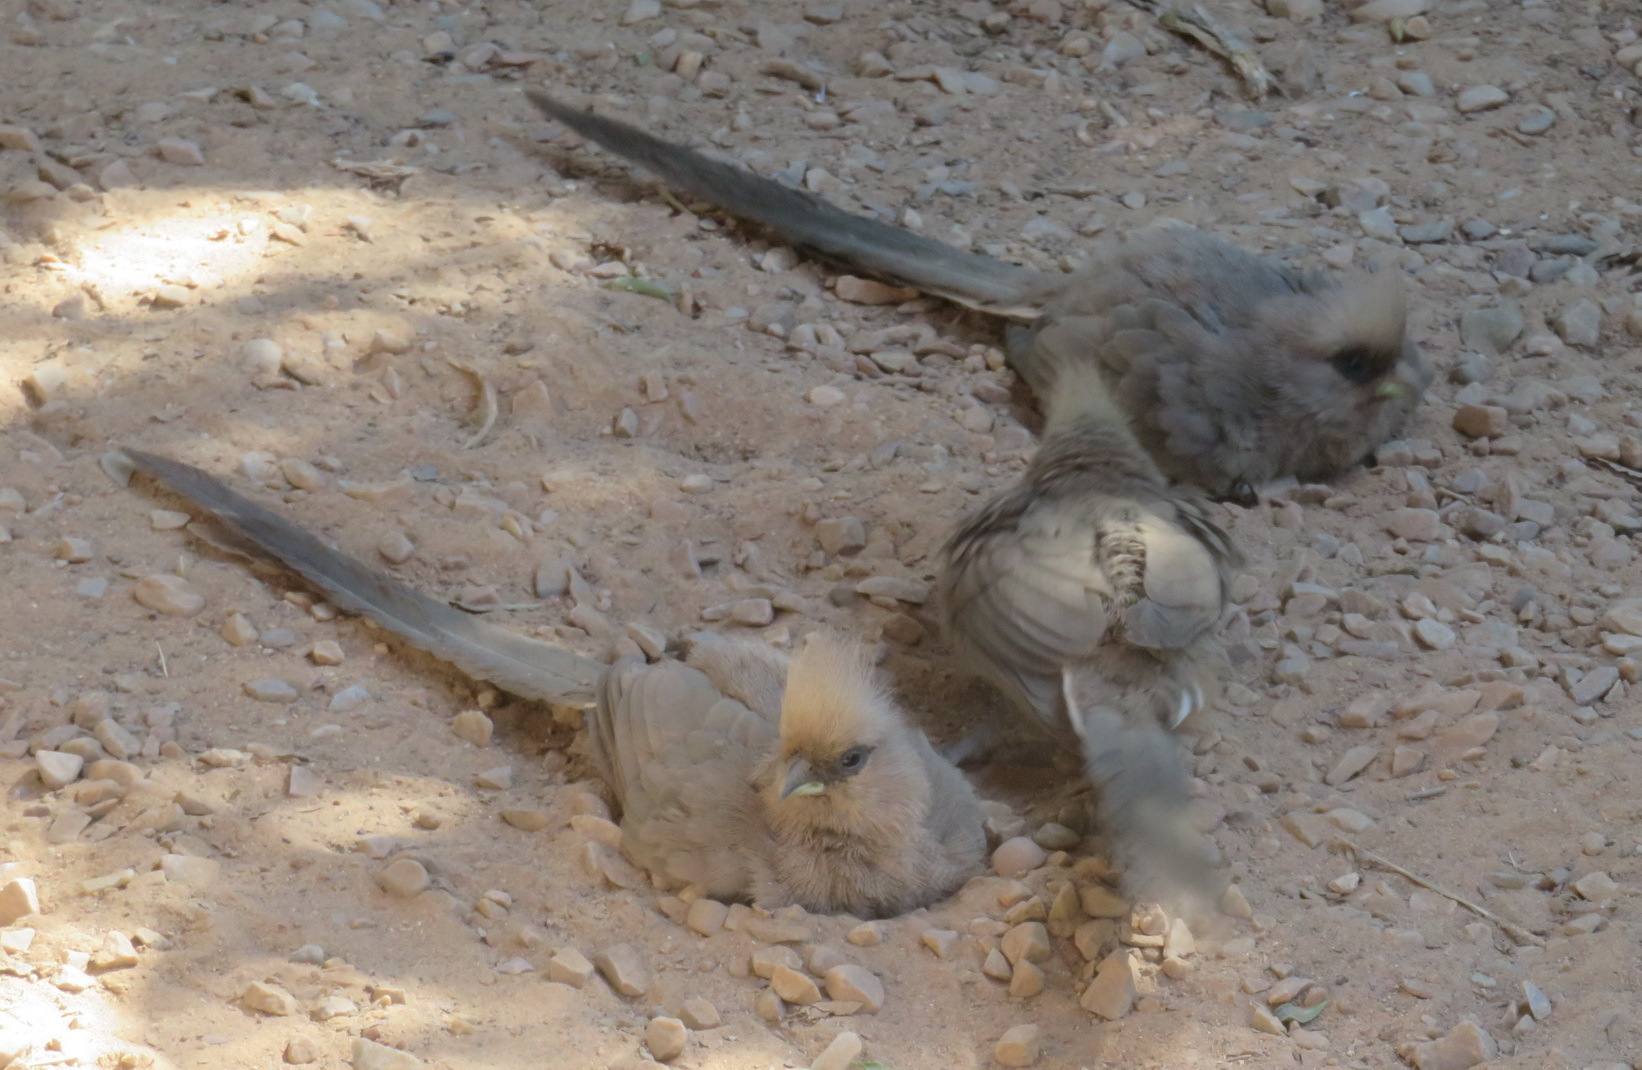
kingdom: Animalia
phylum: Chordata
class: Aves
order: Coliiformes
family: Coliidae
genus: Colius
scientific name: Colius striatus
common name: Speckled mousebird
